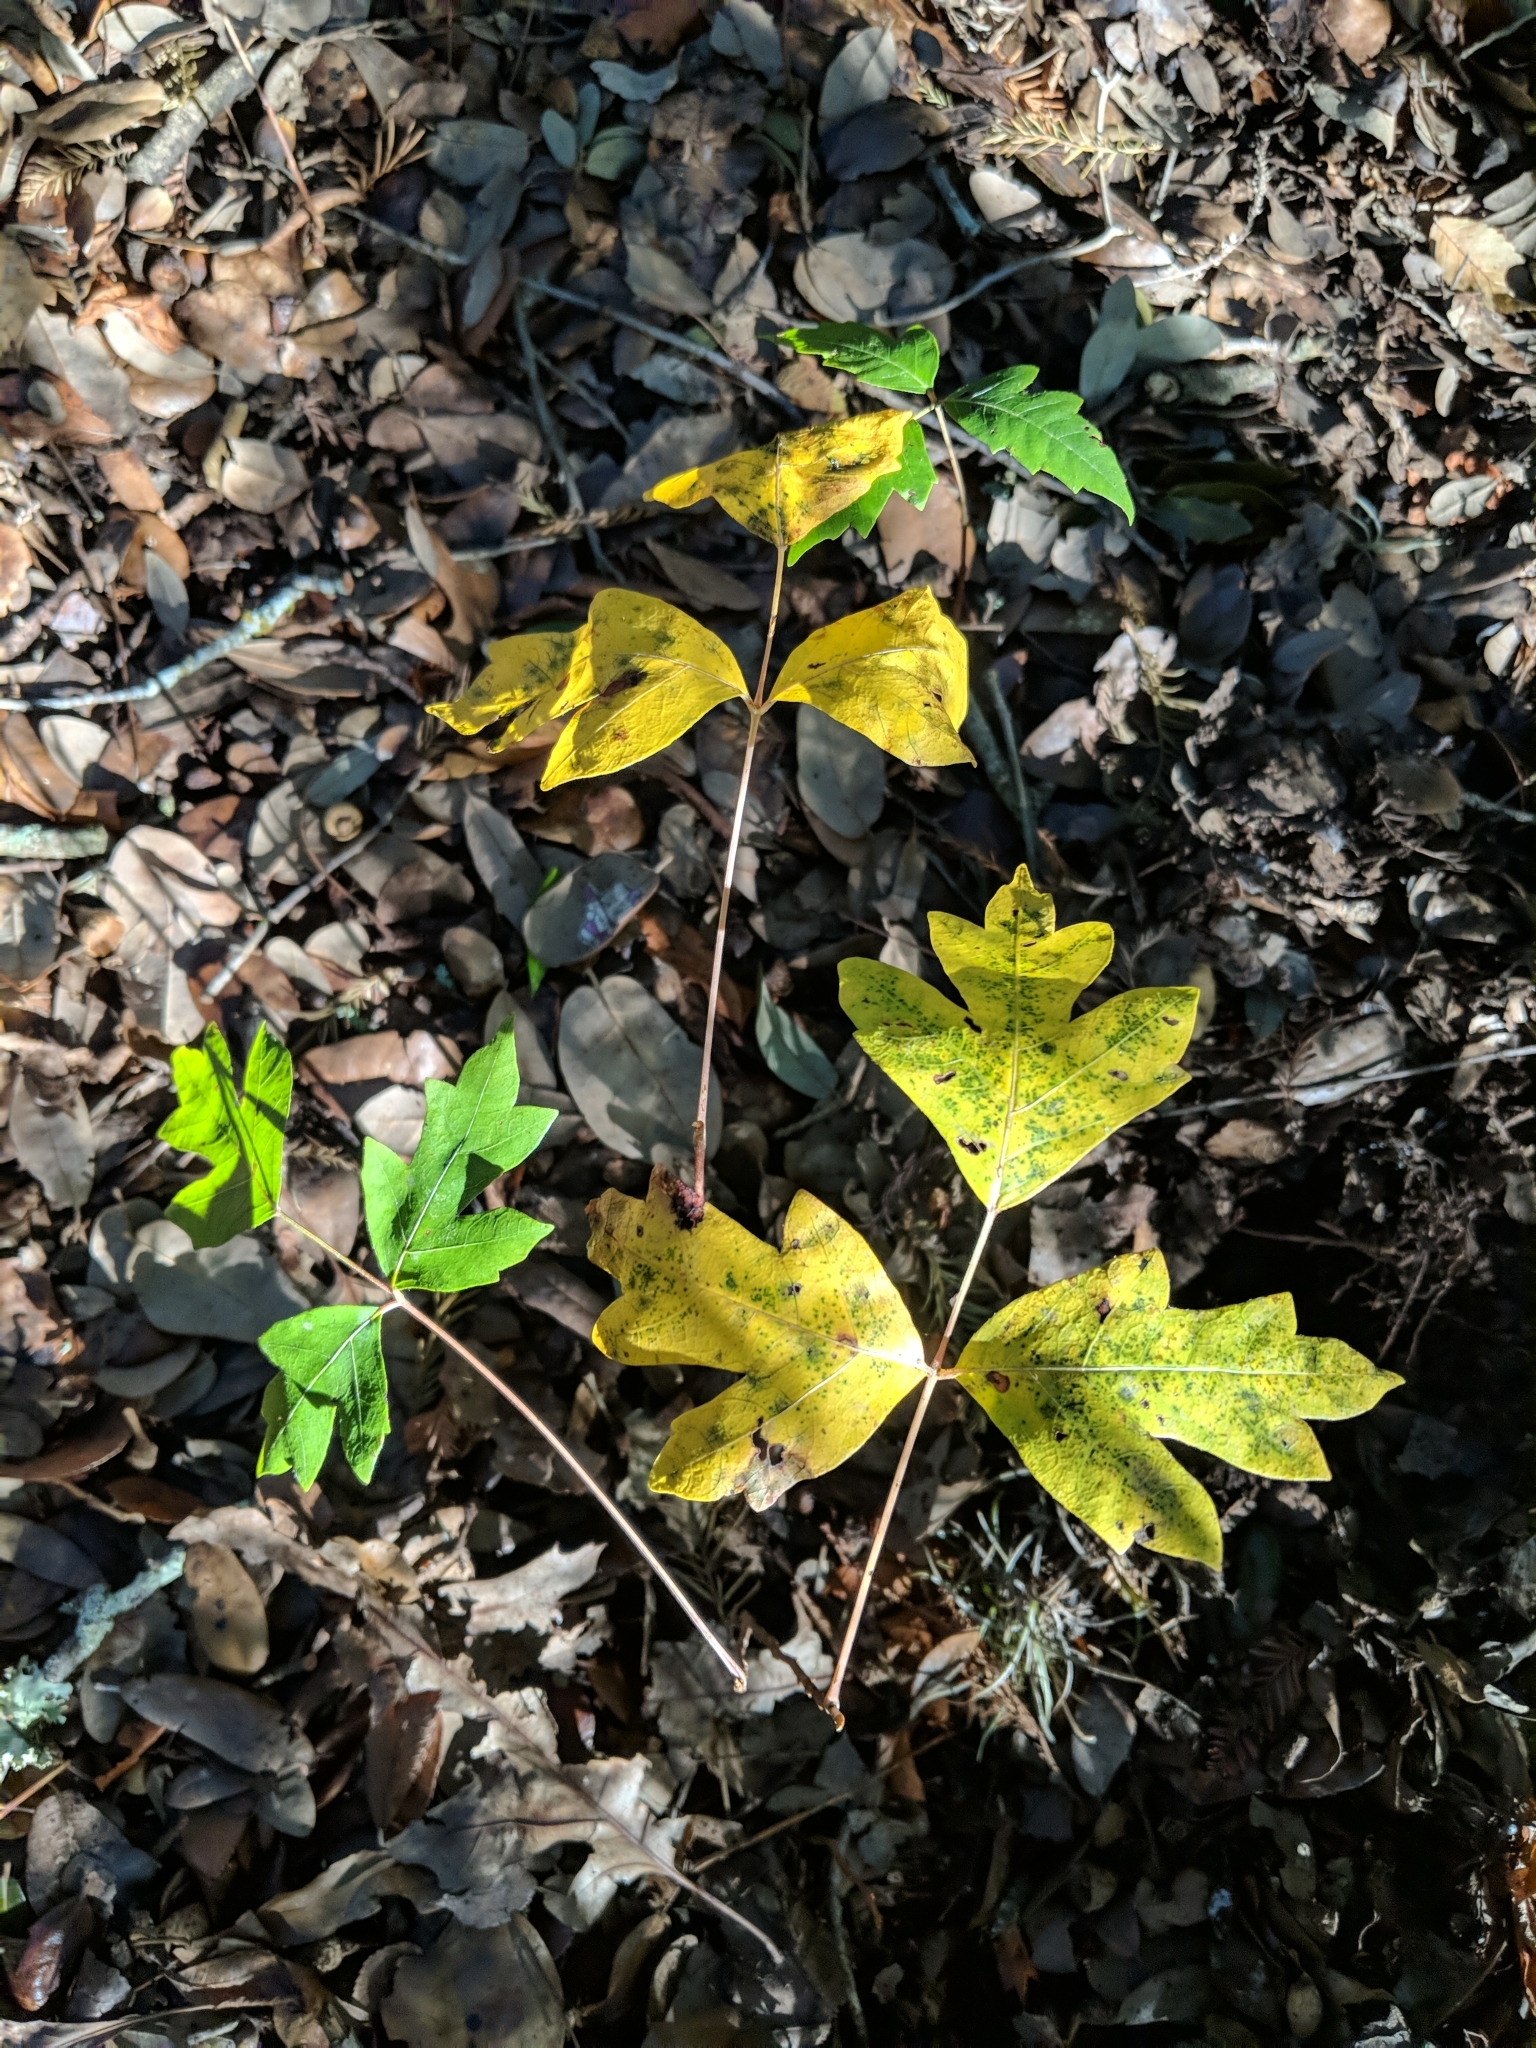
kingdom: Plantae
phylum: Tracheophyta
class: Magnoliopsida
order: Sapindales
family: Anacardiaceae
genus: Toxicodendron
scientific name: Toxicodendron radicans
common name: Poison ivy
